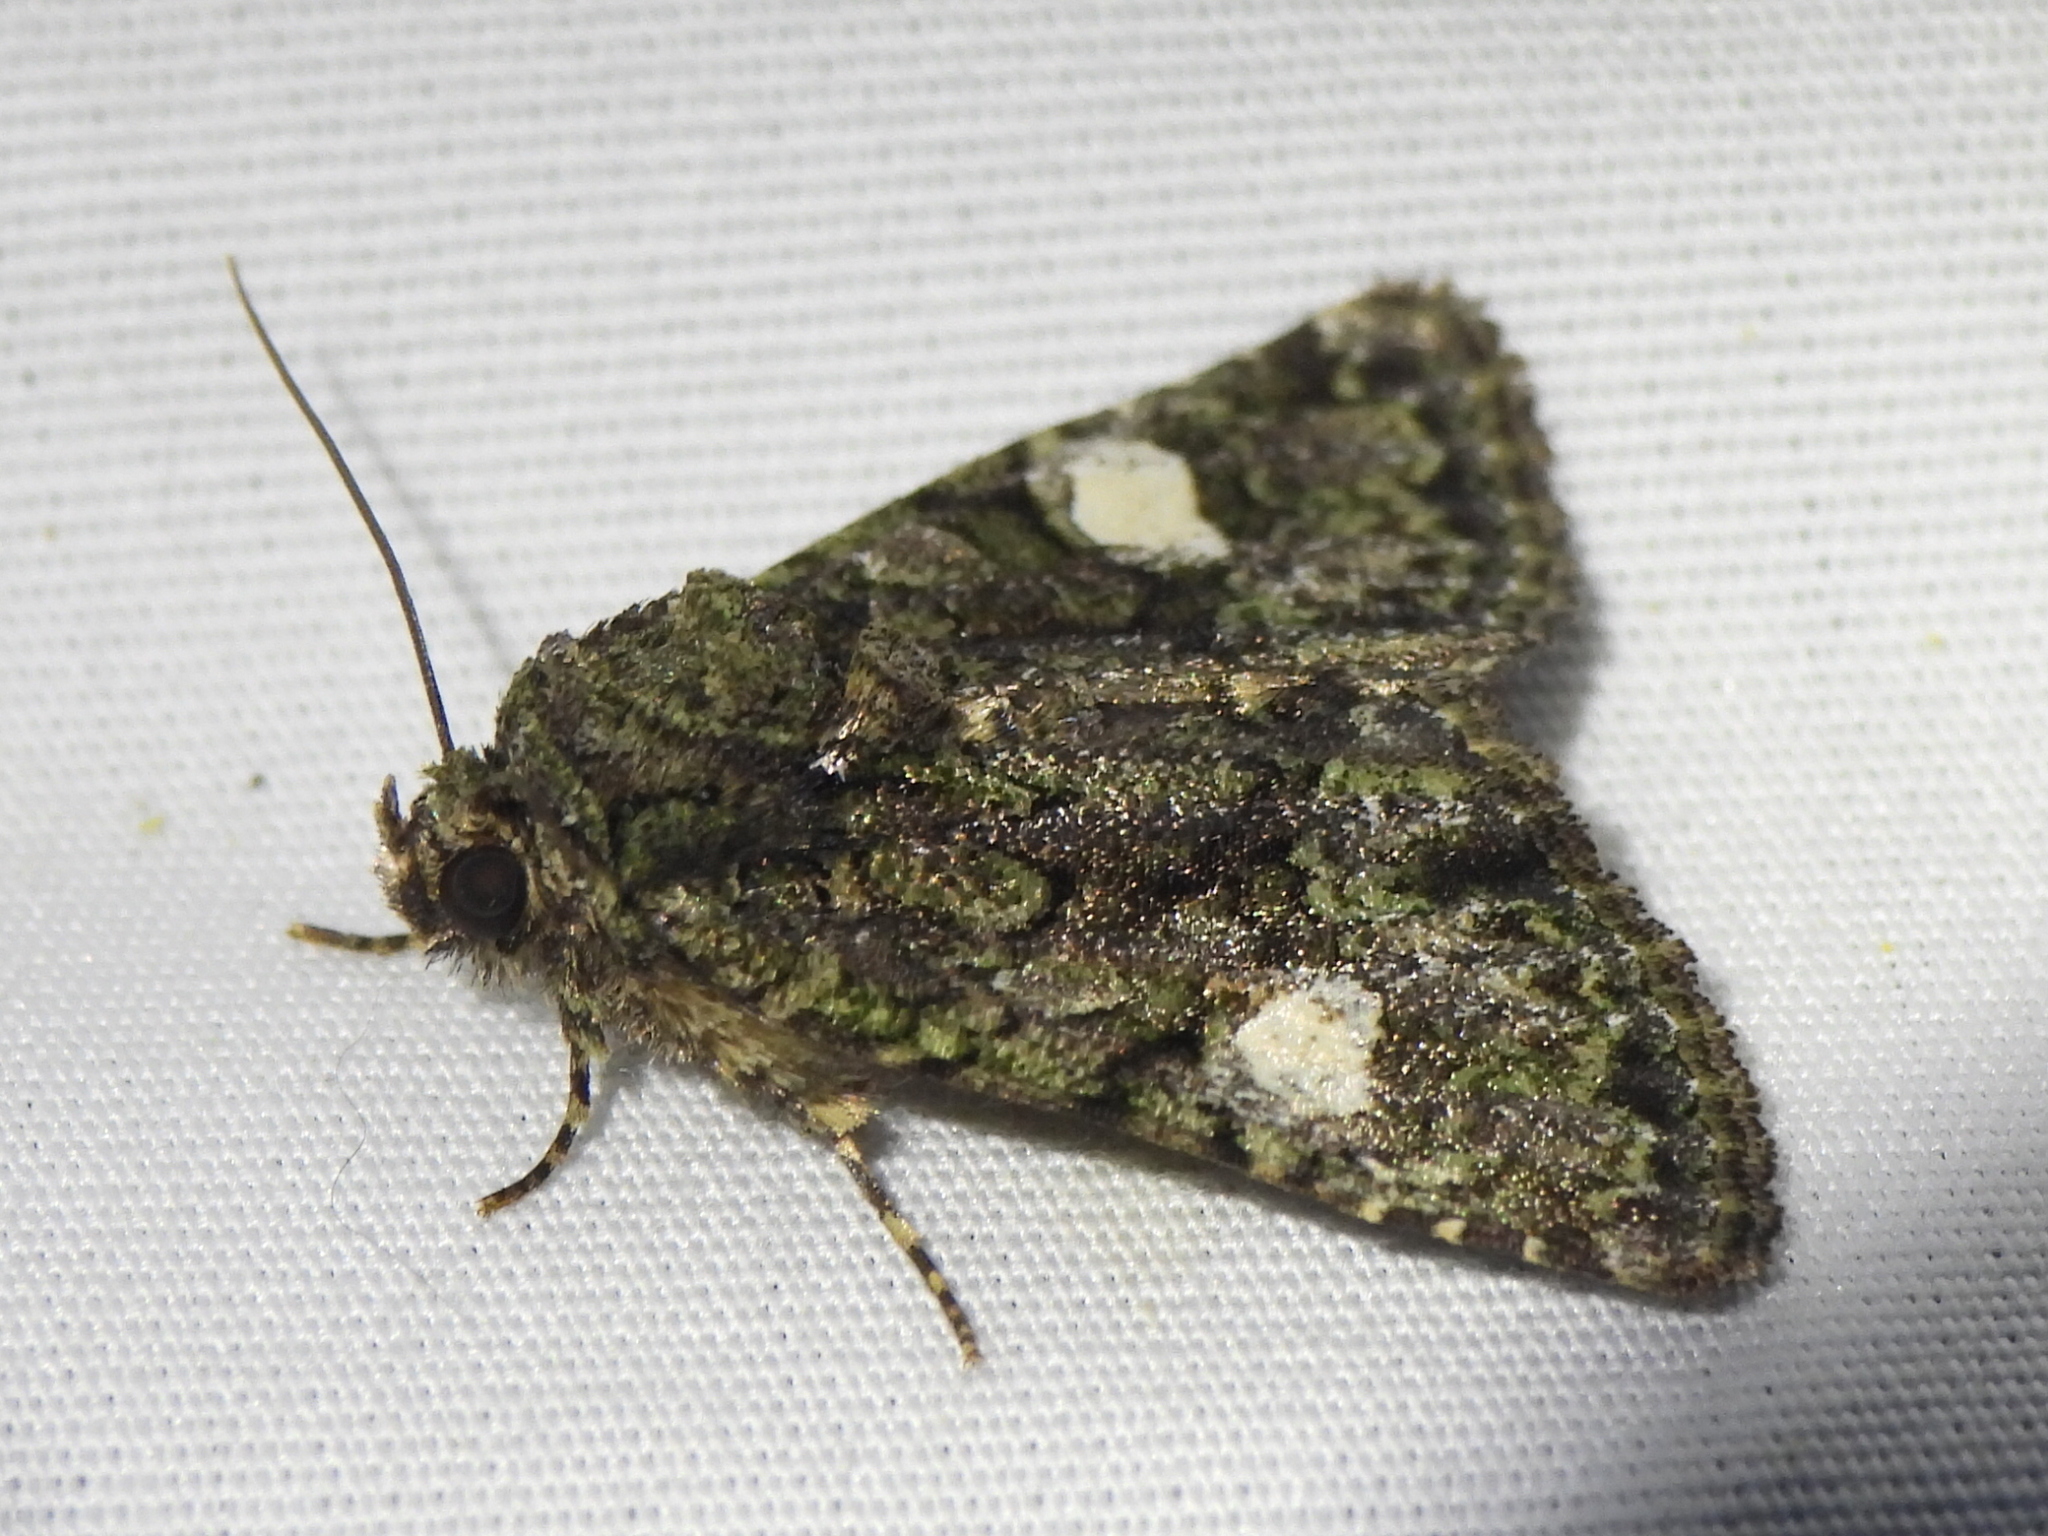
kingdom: Animalia
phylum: Arthropoda
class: Insecta
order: Lepidoptera
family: Noctuidae
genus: Phosphila
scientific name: Phosphila miselioides
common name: Spotted phosphila moth
